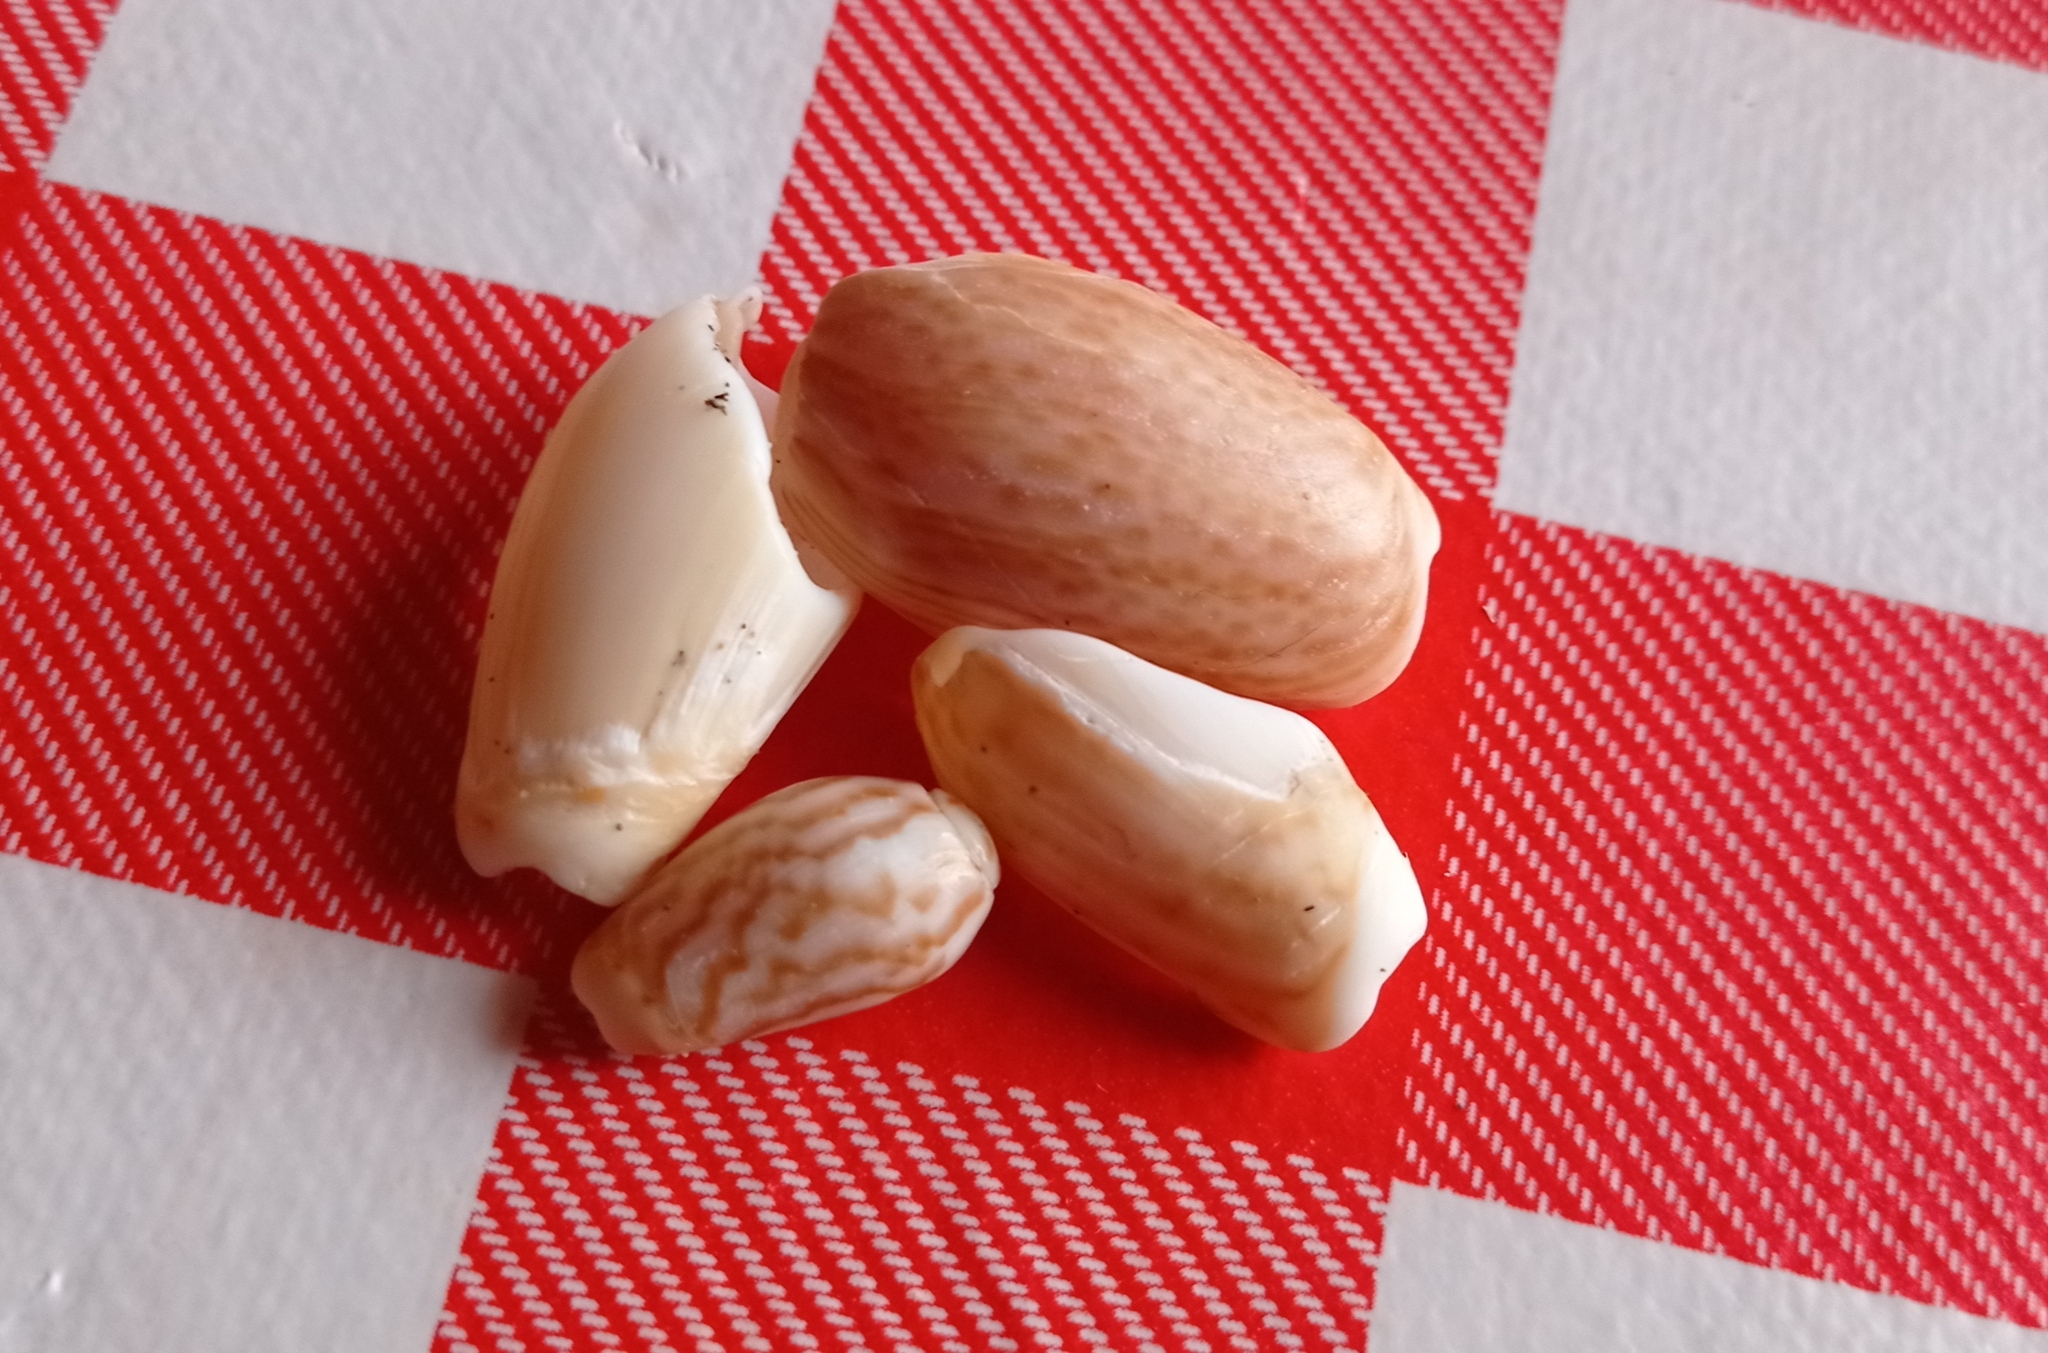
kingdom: Animalia
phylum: Mollusca
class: Gastropoda
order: Neogastropoda
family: Olividae
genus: Felicioliva
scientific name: Felicioliva peruviana
